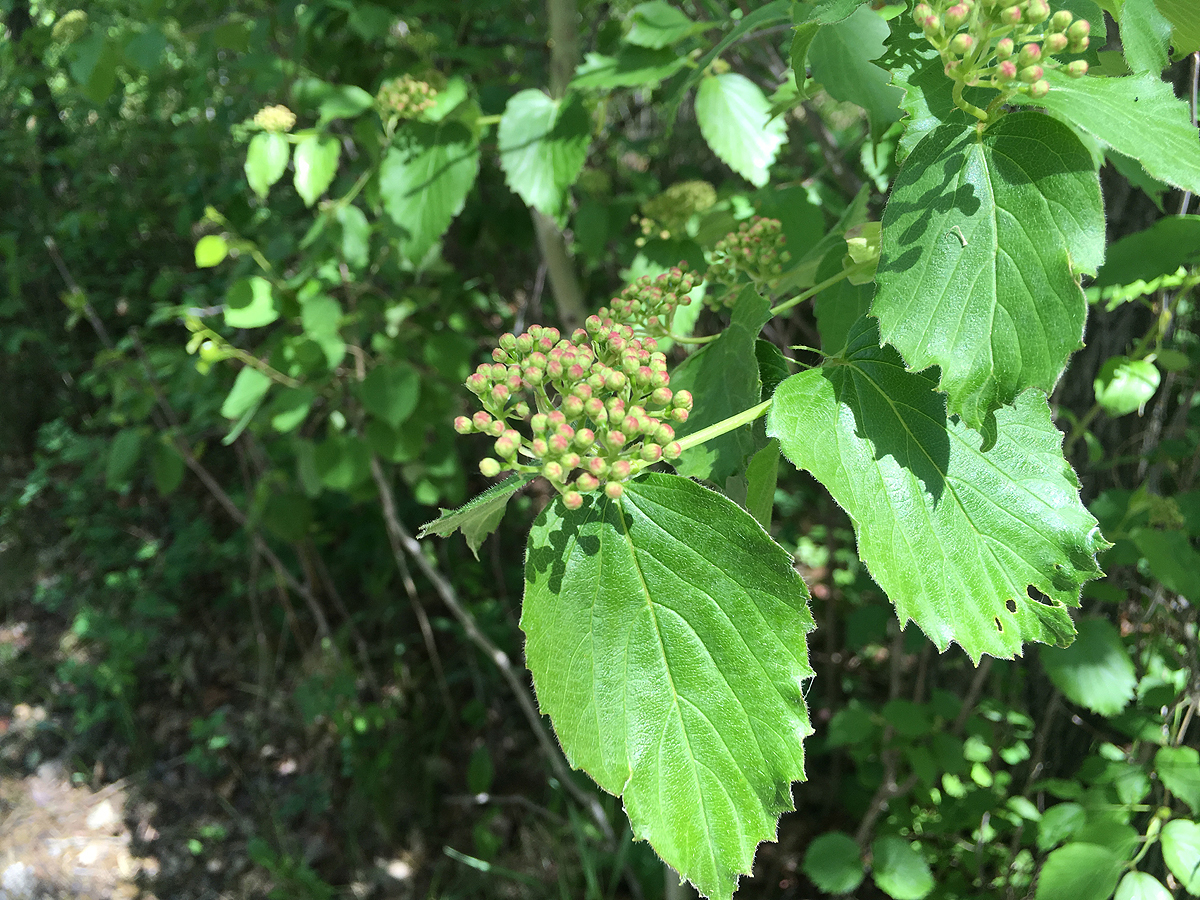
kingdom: Plantae
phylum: Tracheophyta
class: Magnoliopsida
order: Dipsacales
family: Viburnaceae
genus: Viburnum
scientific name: Viburnum rafinesqueanum
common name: Downy arrow-wood
